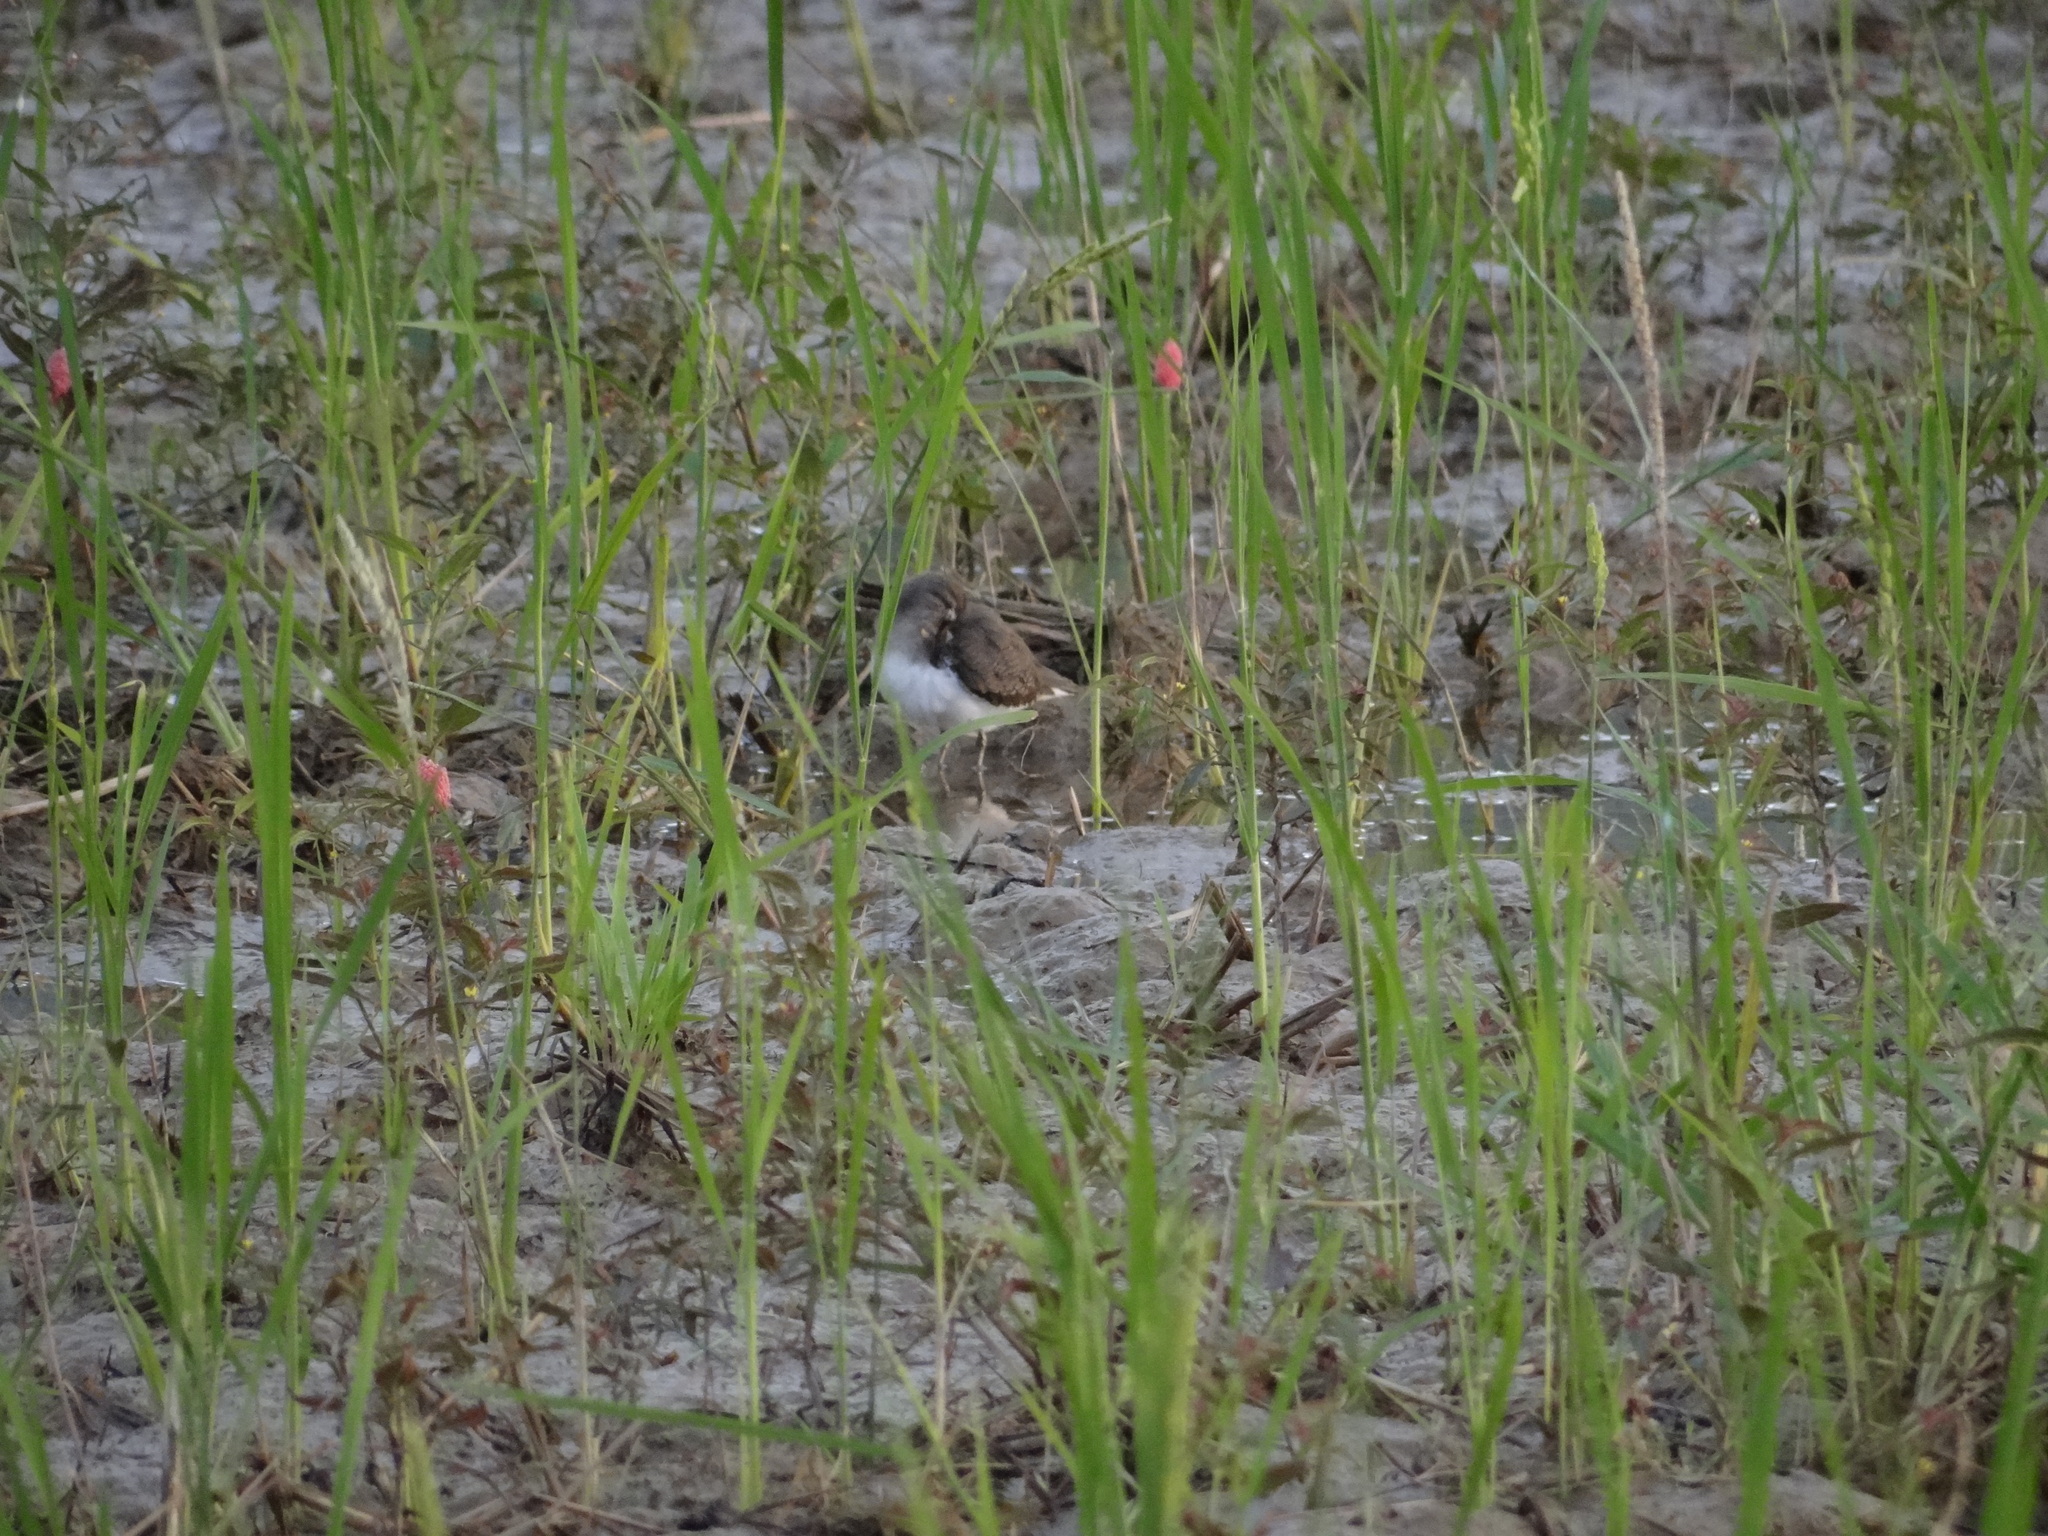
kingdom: Animalia
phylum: Chordata
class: Aves
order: Charadriiformes
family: Scolopacidae
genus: Actitis
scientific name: Actitis hypoleucos
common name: Common sandpiper
